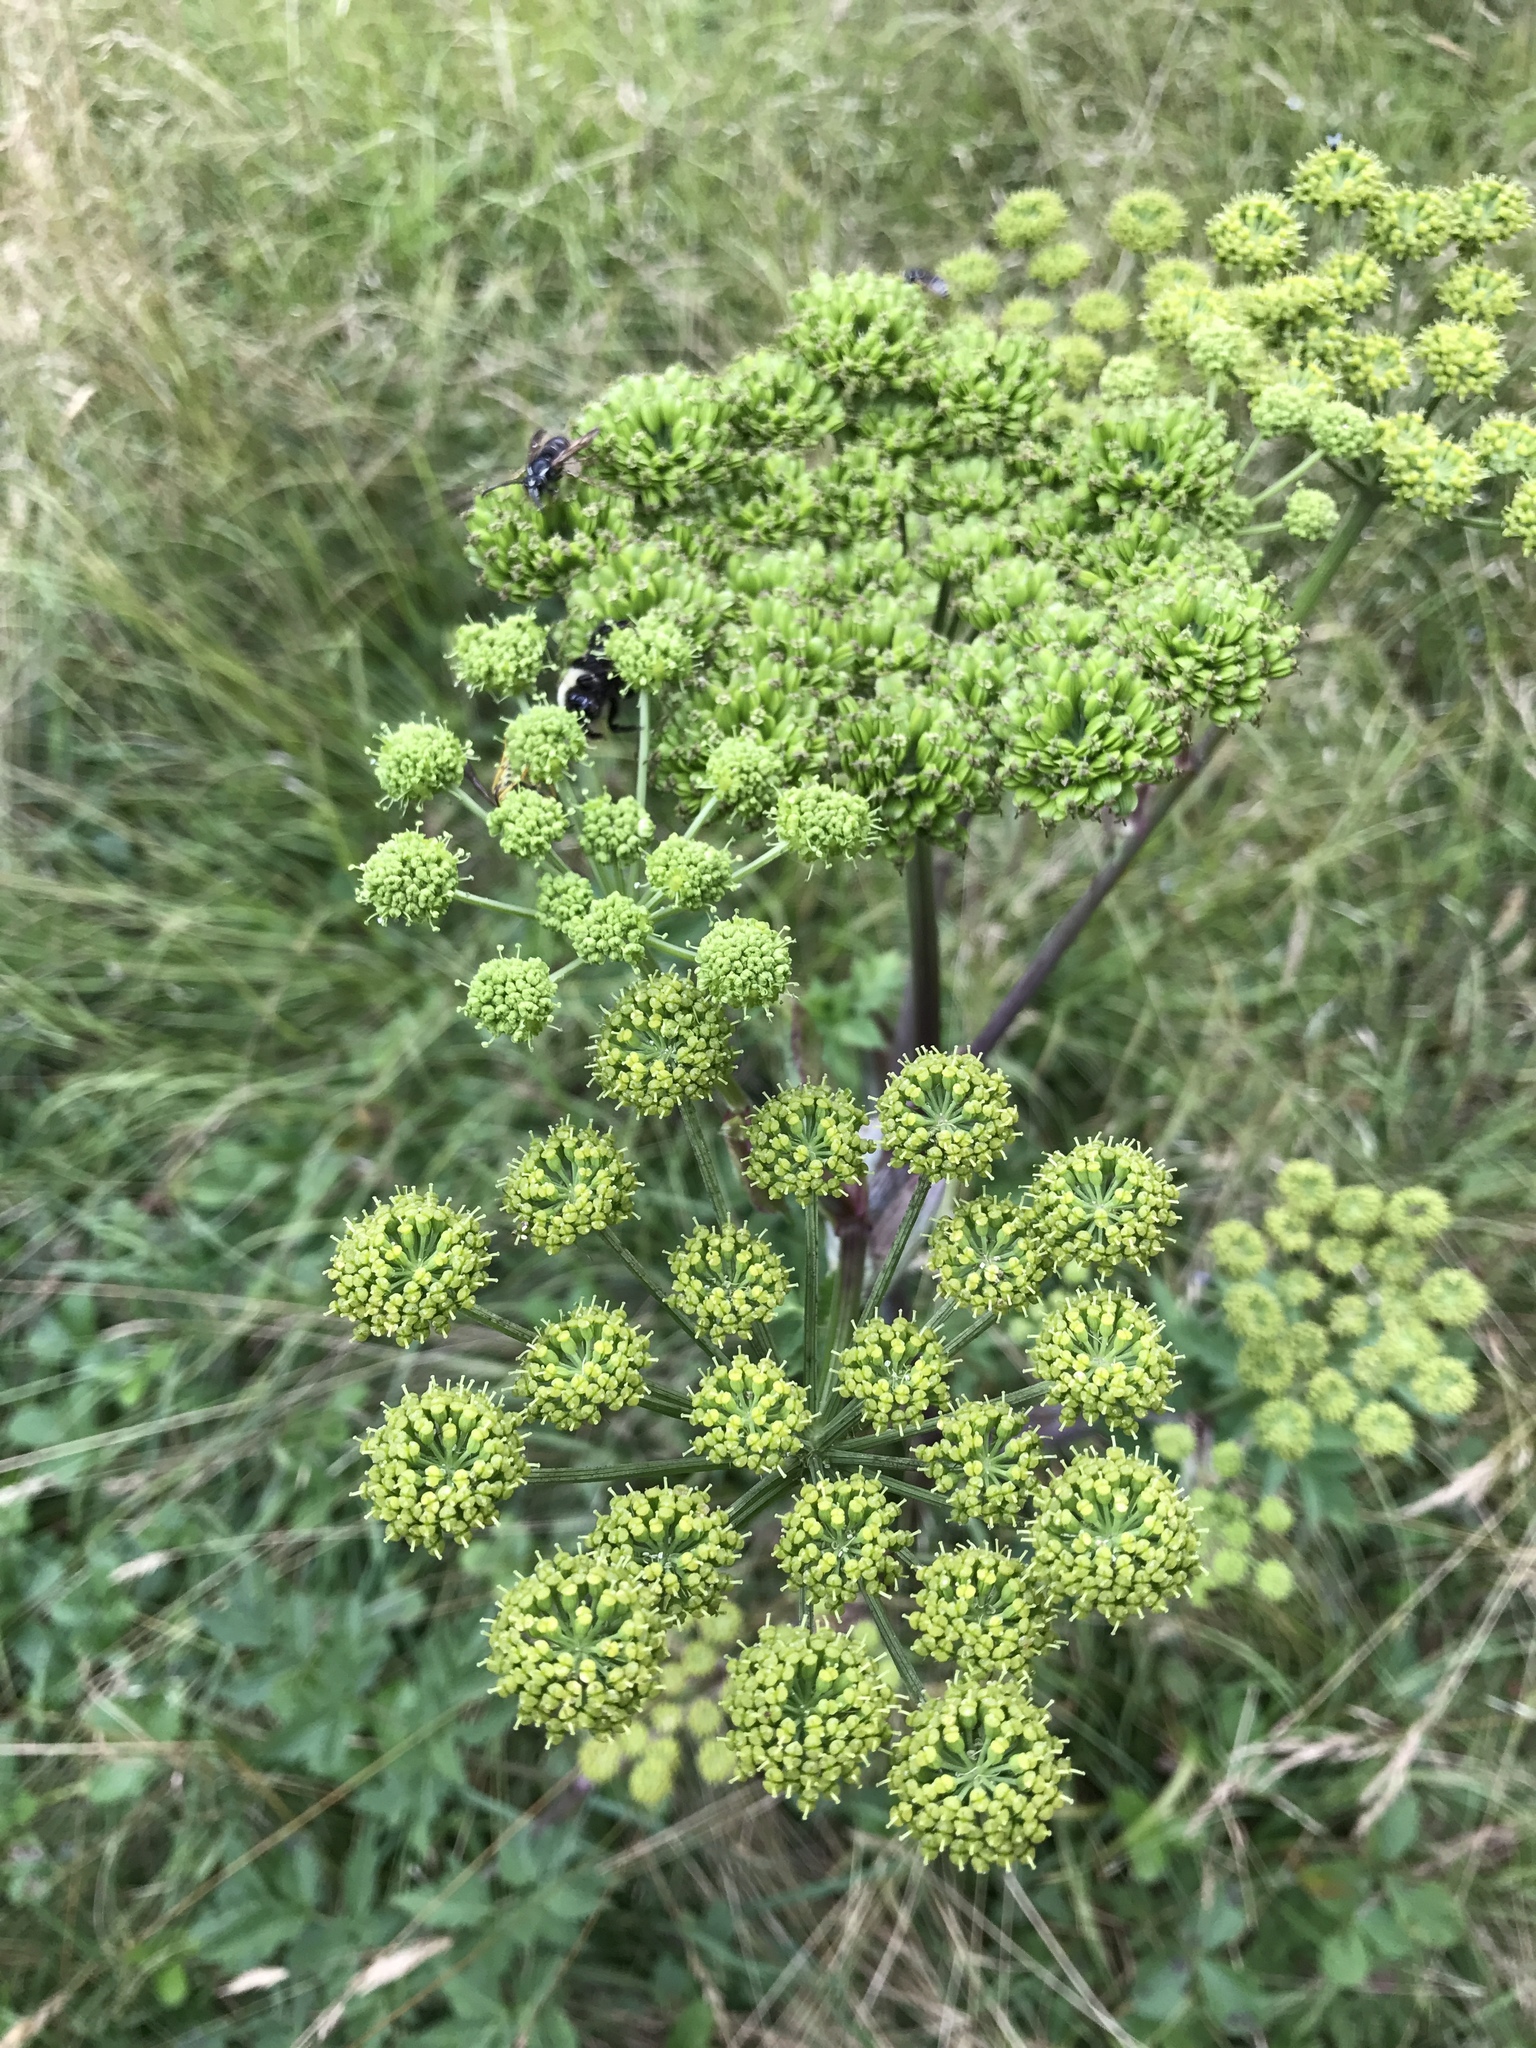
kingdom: Plantae
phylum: Tracheophyta
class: Magnoliopsida
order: Apiales
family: Apiaceae
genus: Angelica
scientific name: Angelica triquinata
